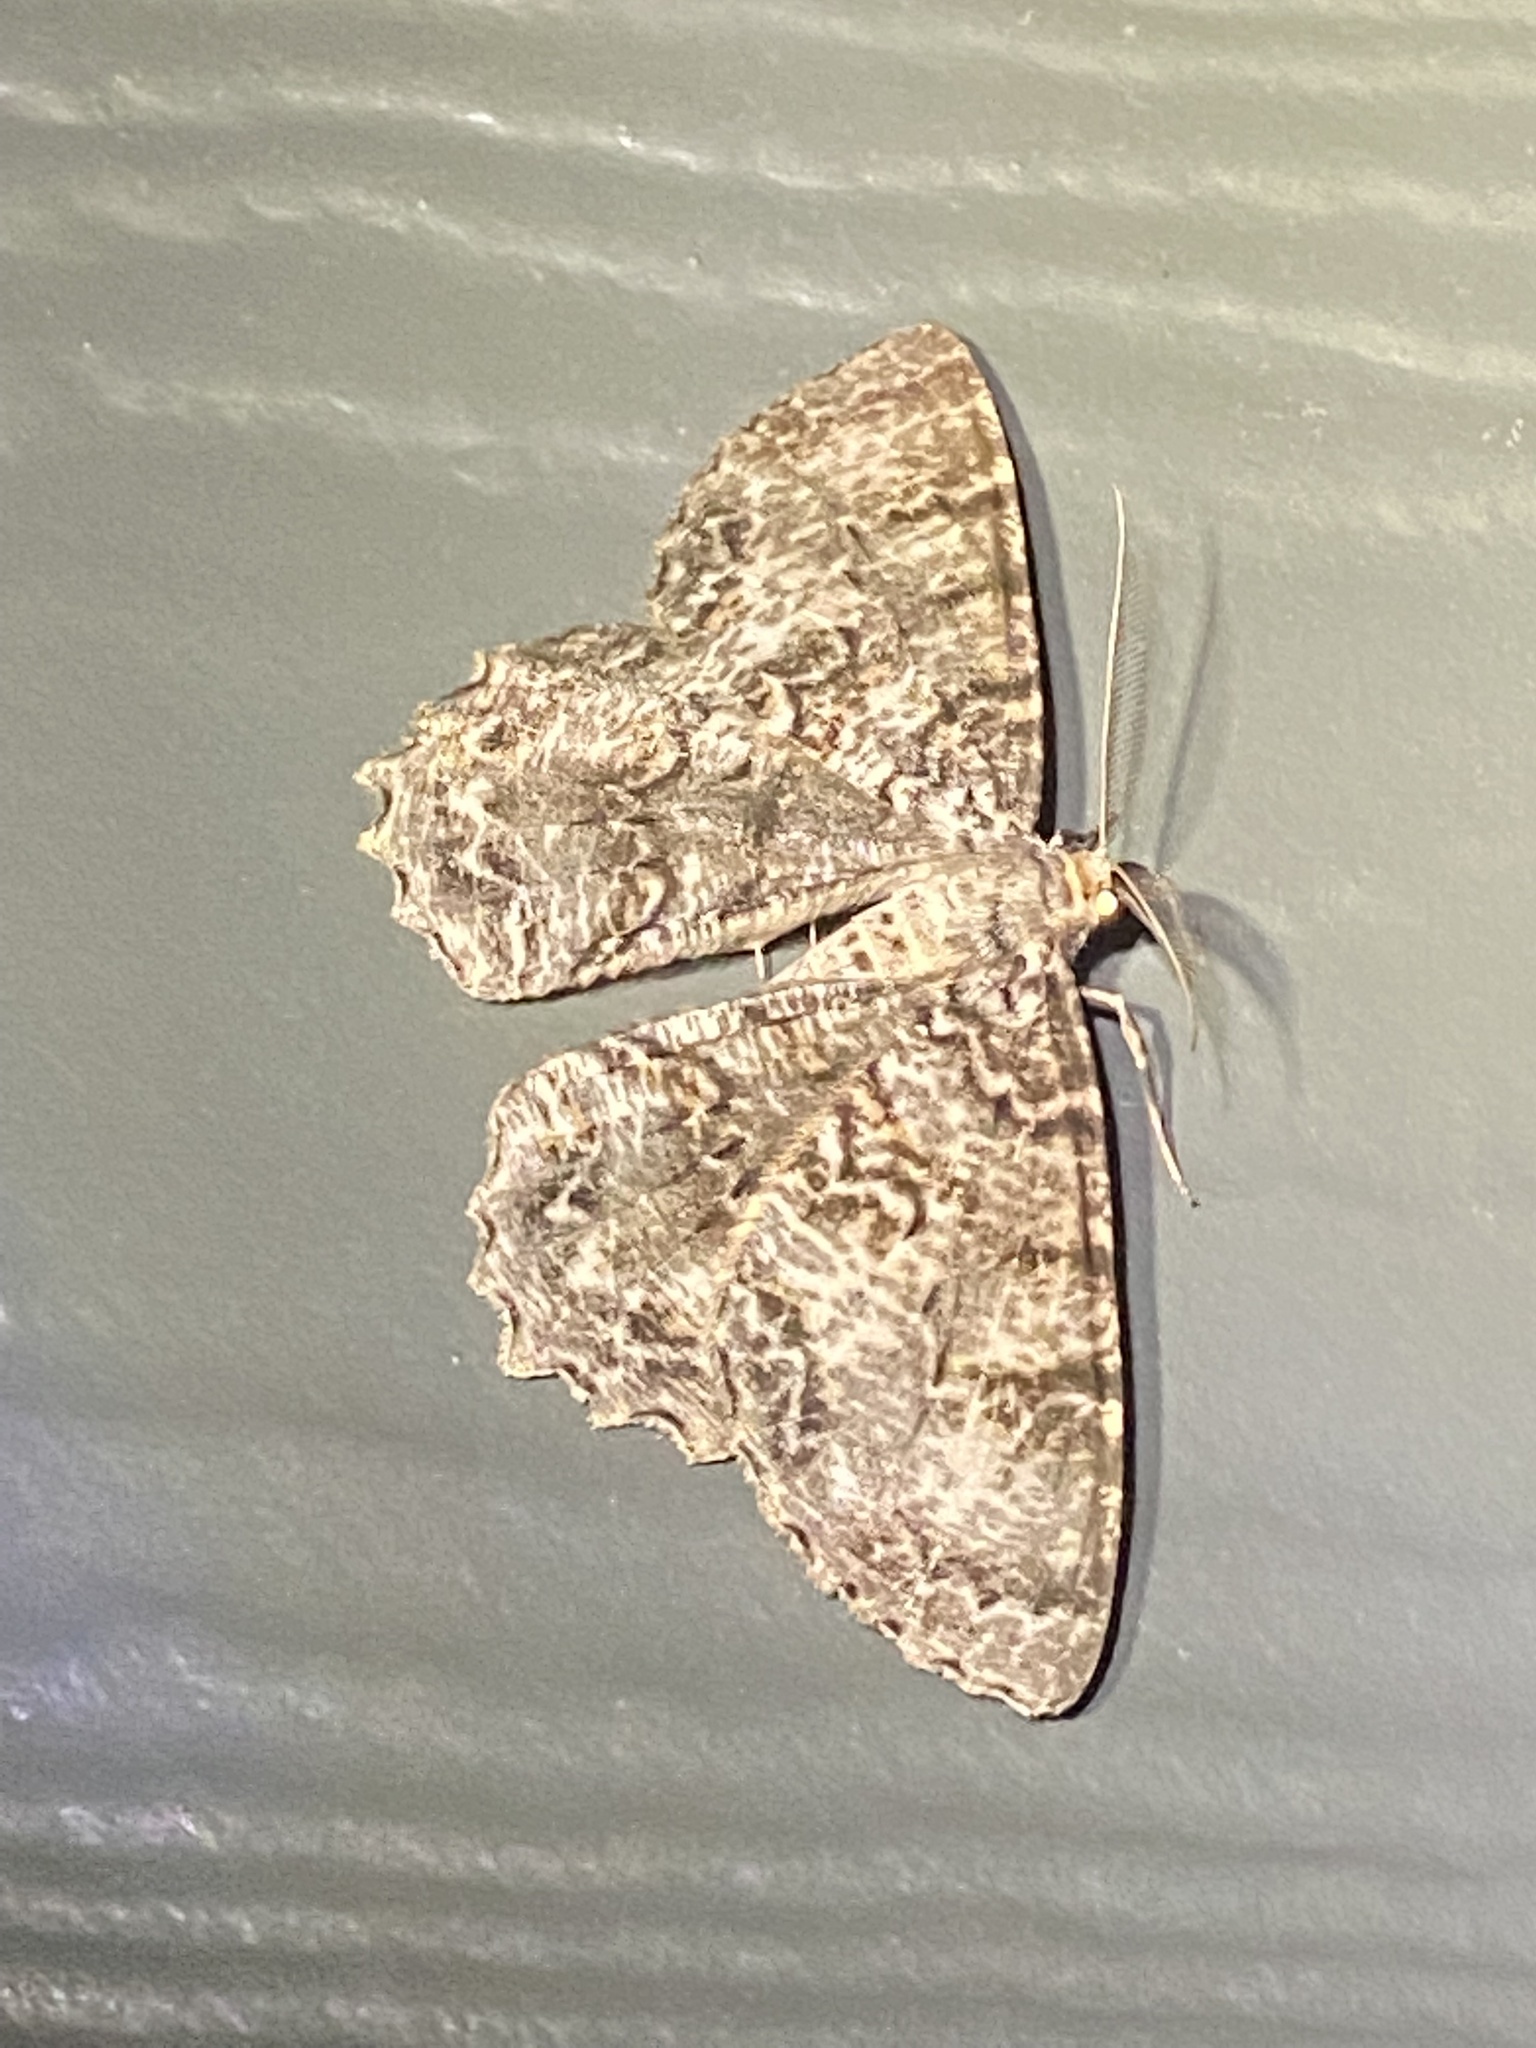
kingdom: Animalia
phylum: Arthropoda
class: Insecta
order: Lepidoptera
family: Geometridae
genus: Epimecis
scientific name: Epimecis hortaria
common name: Tulip-tree beauty
